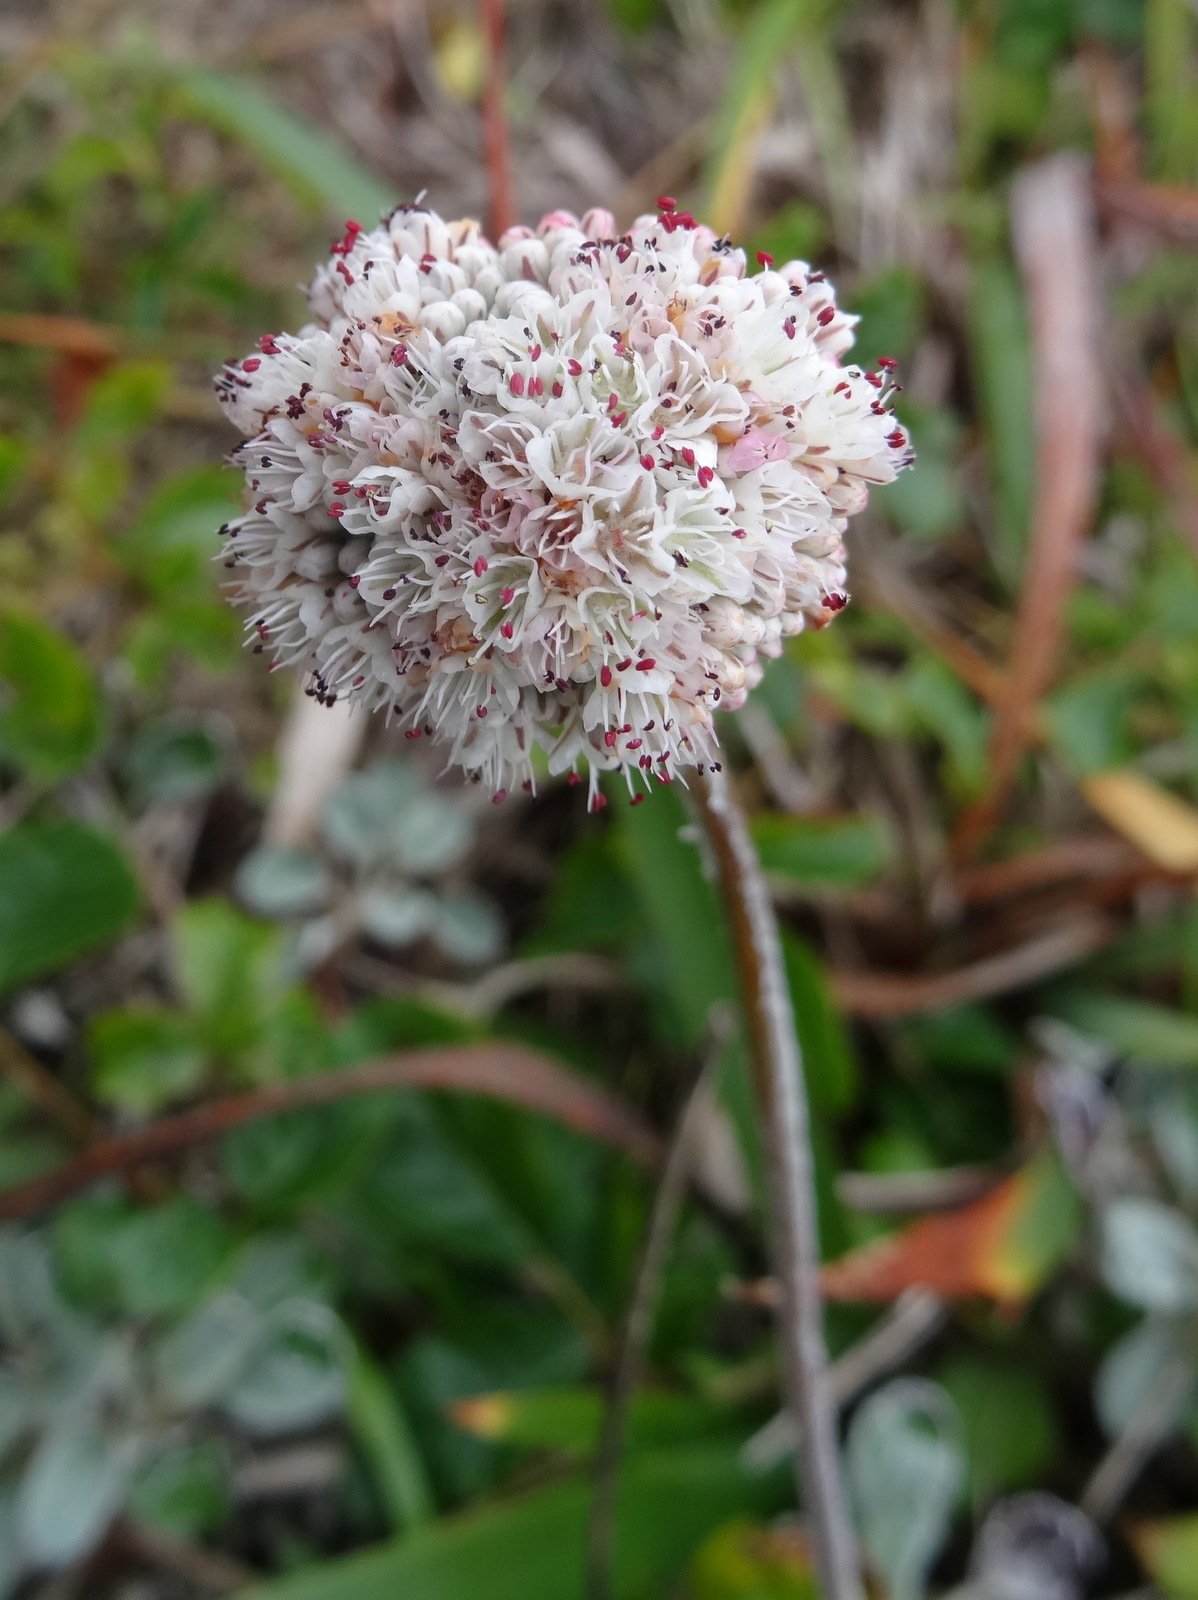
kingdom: Plantae
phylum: Tracheophyta
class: Magnoliopsida
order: Caryophyllales
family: Polygonaceae
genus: Eriogonum
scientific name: Eriogonum latifolium
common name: Seaside wild buckwheat
